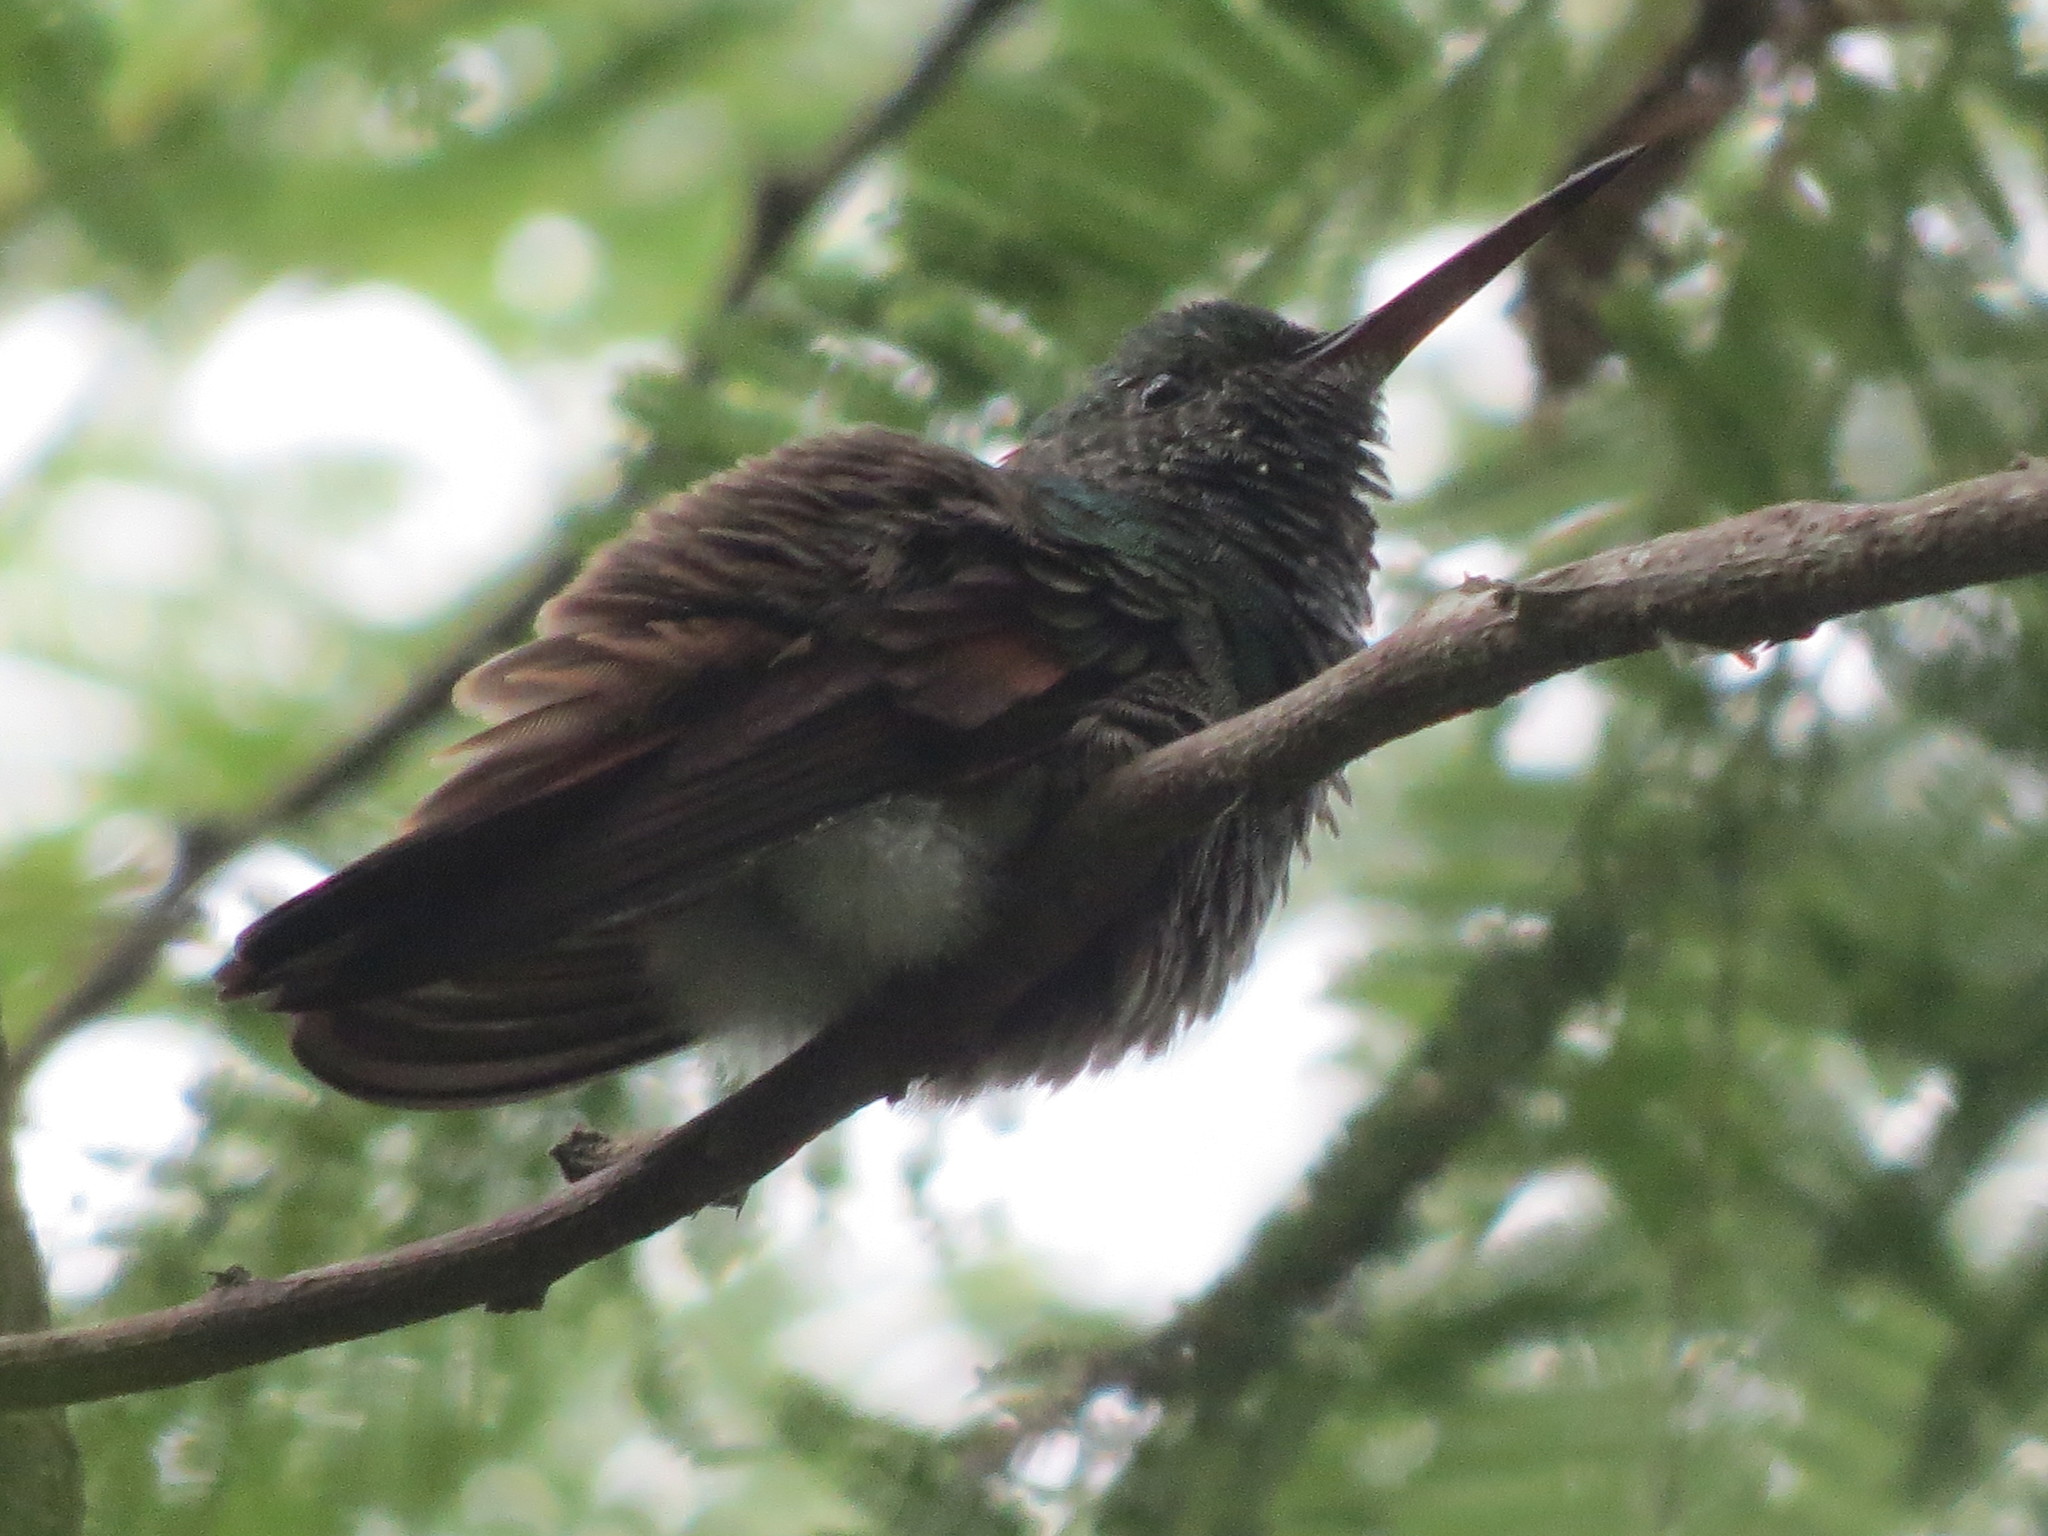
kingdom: Animalia
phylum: Chordata
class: Aves
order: Apodiformes
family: Trochilidae
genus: Saucerottia
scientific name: Saucerottia beryllina
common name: Berylline hummingbird
